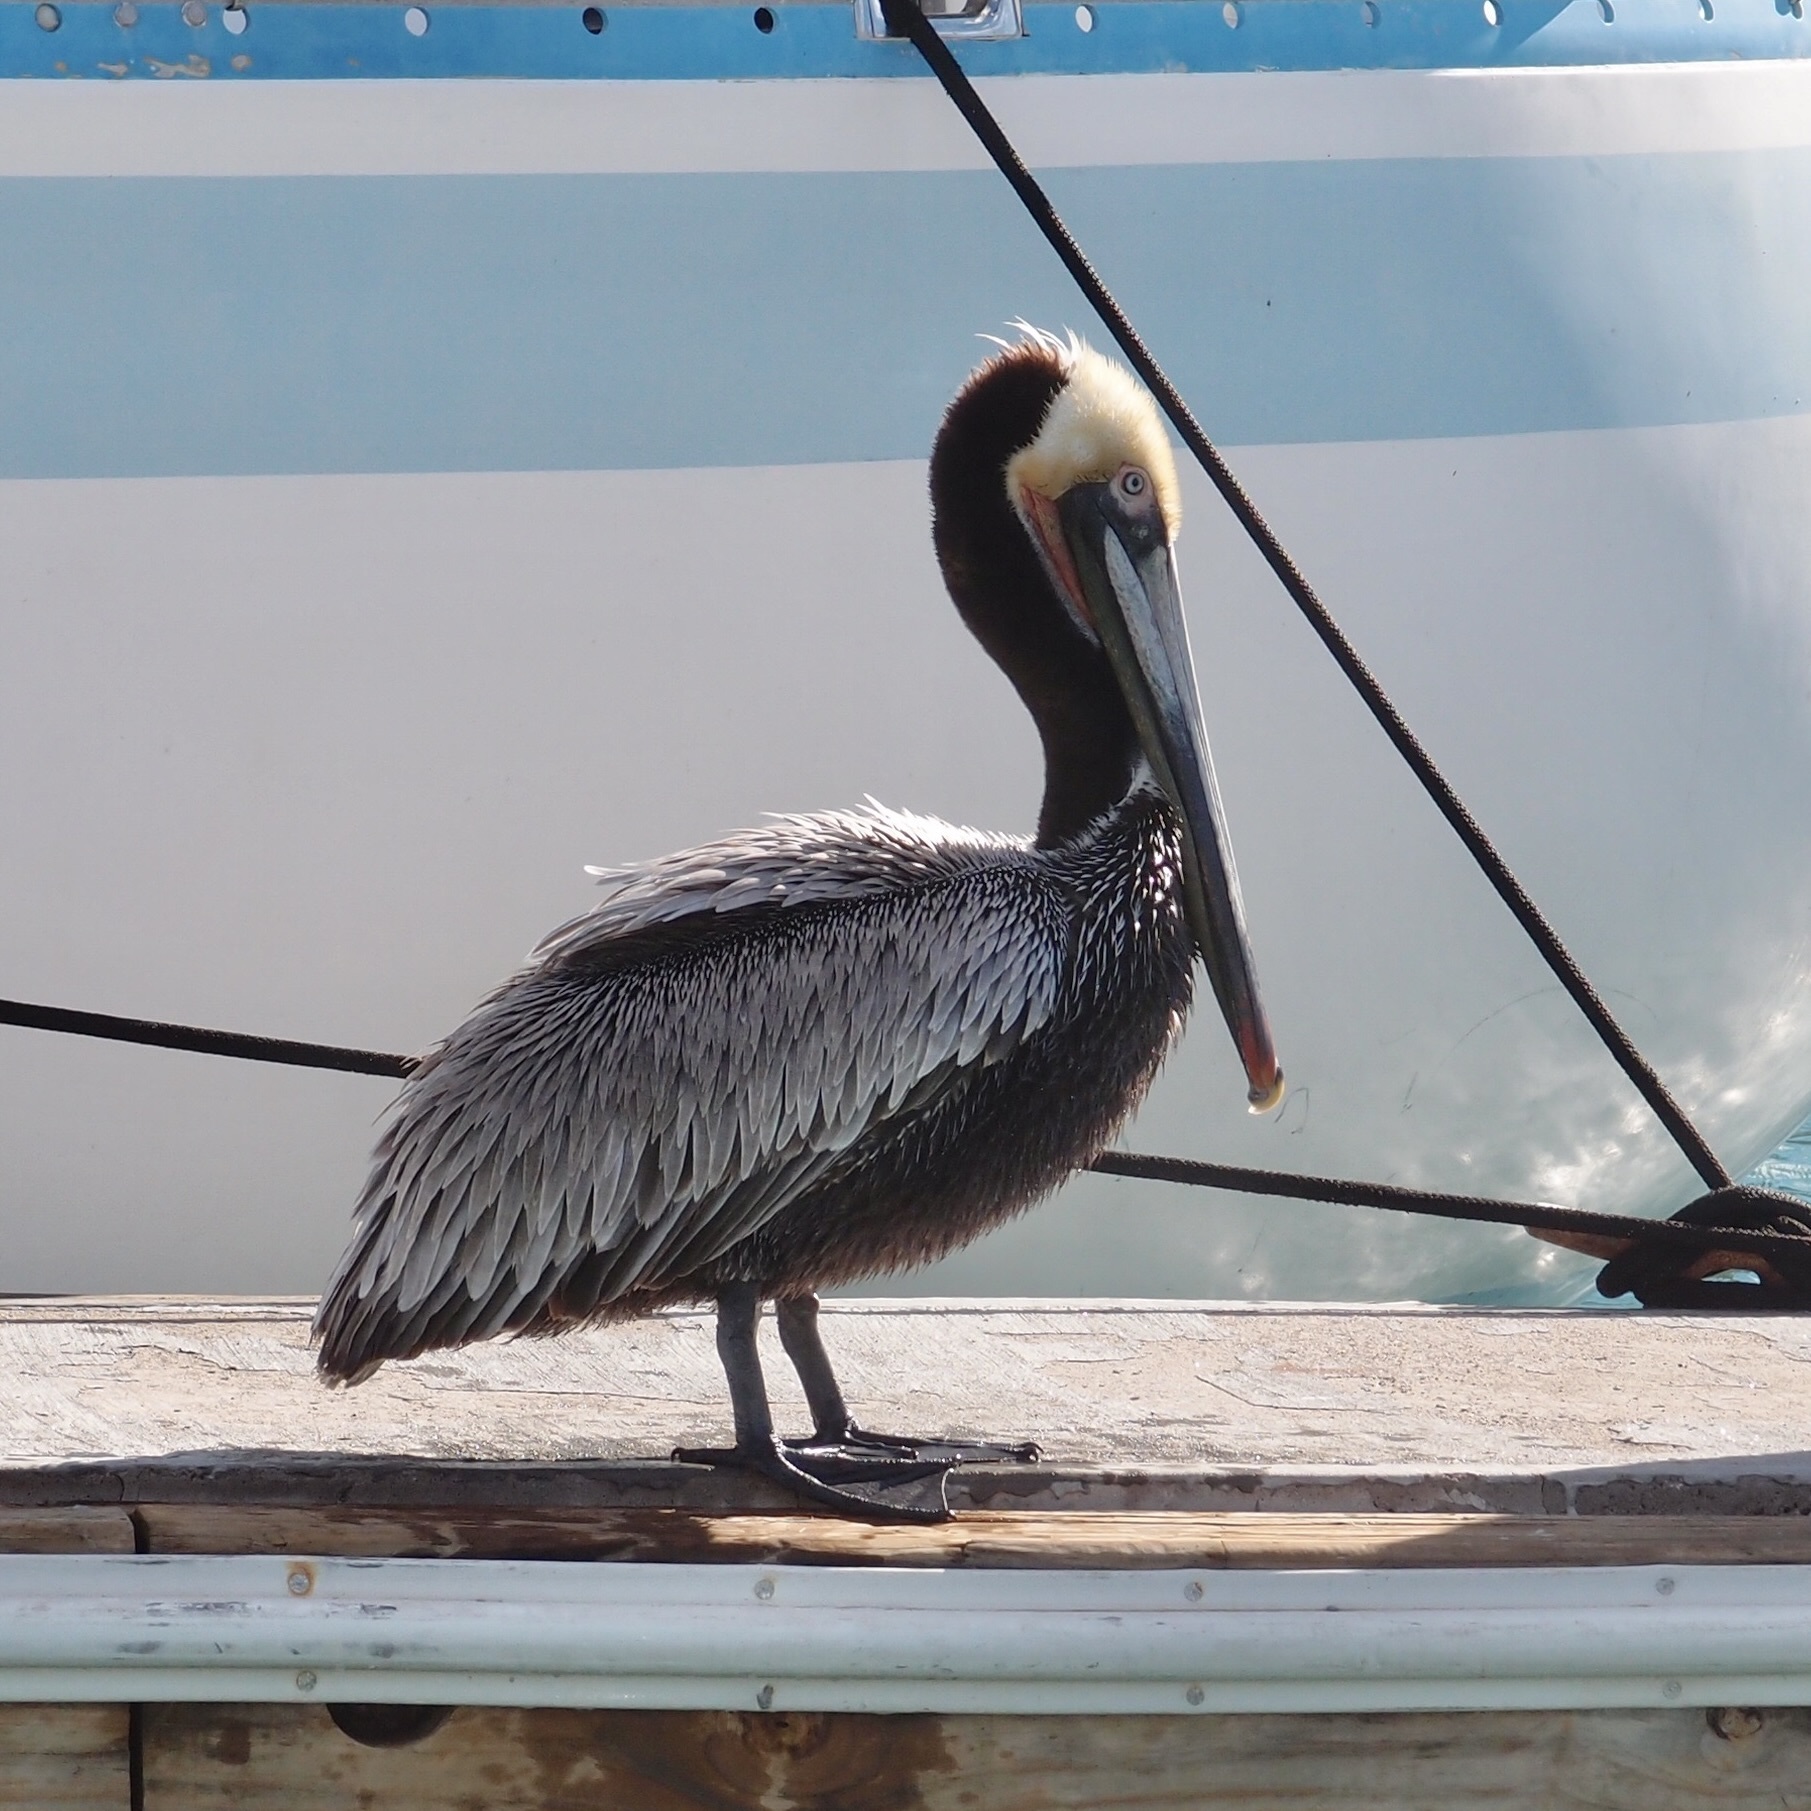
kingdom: Animalia
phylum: Chordata
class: Aves
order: Pelecaniformes
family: Pelecanidae
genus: Pelecanus
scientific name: Pelecanus occidentalis
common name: Brown pelican
